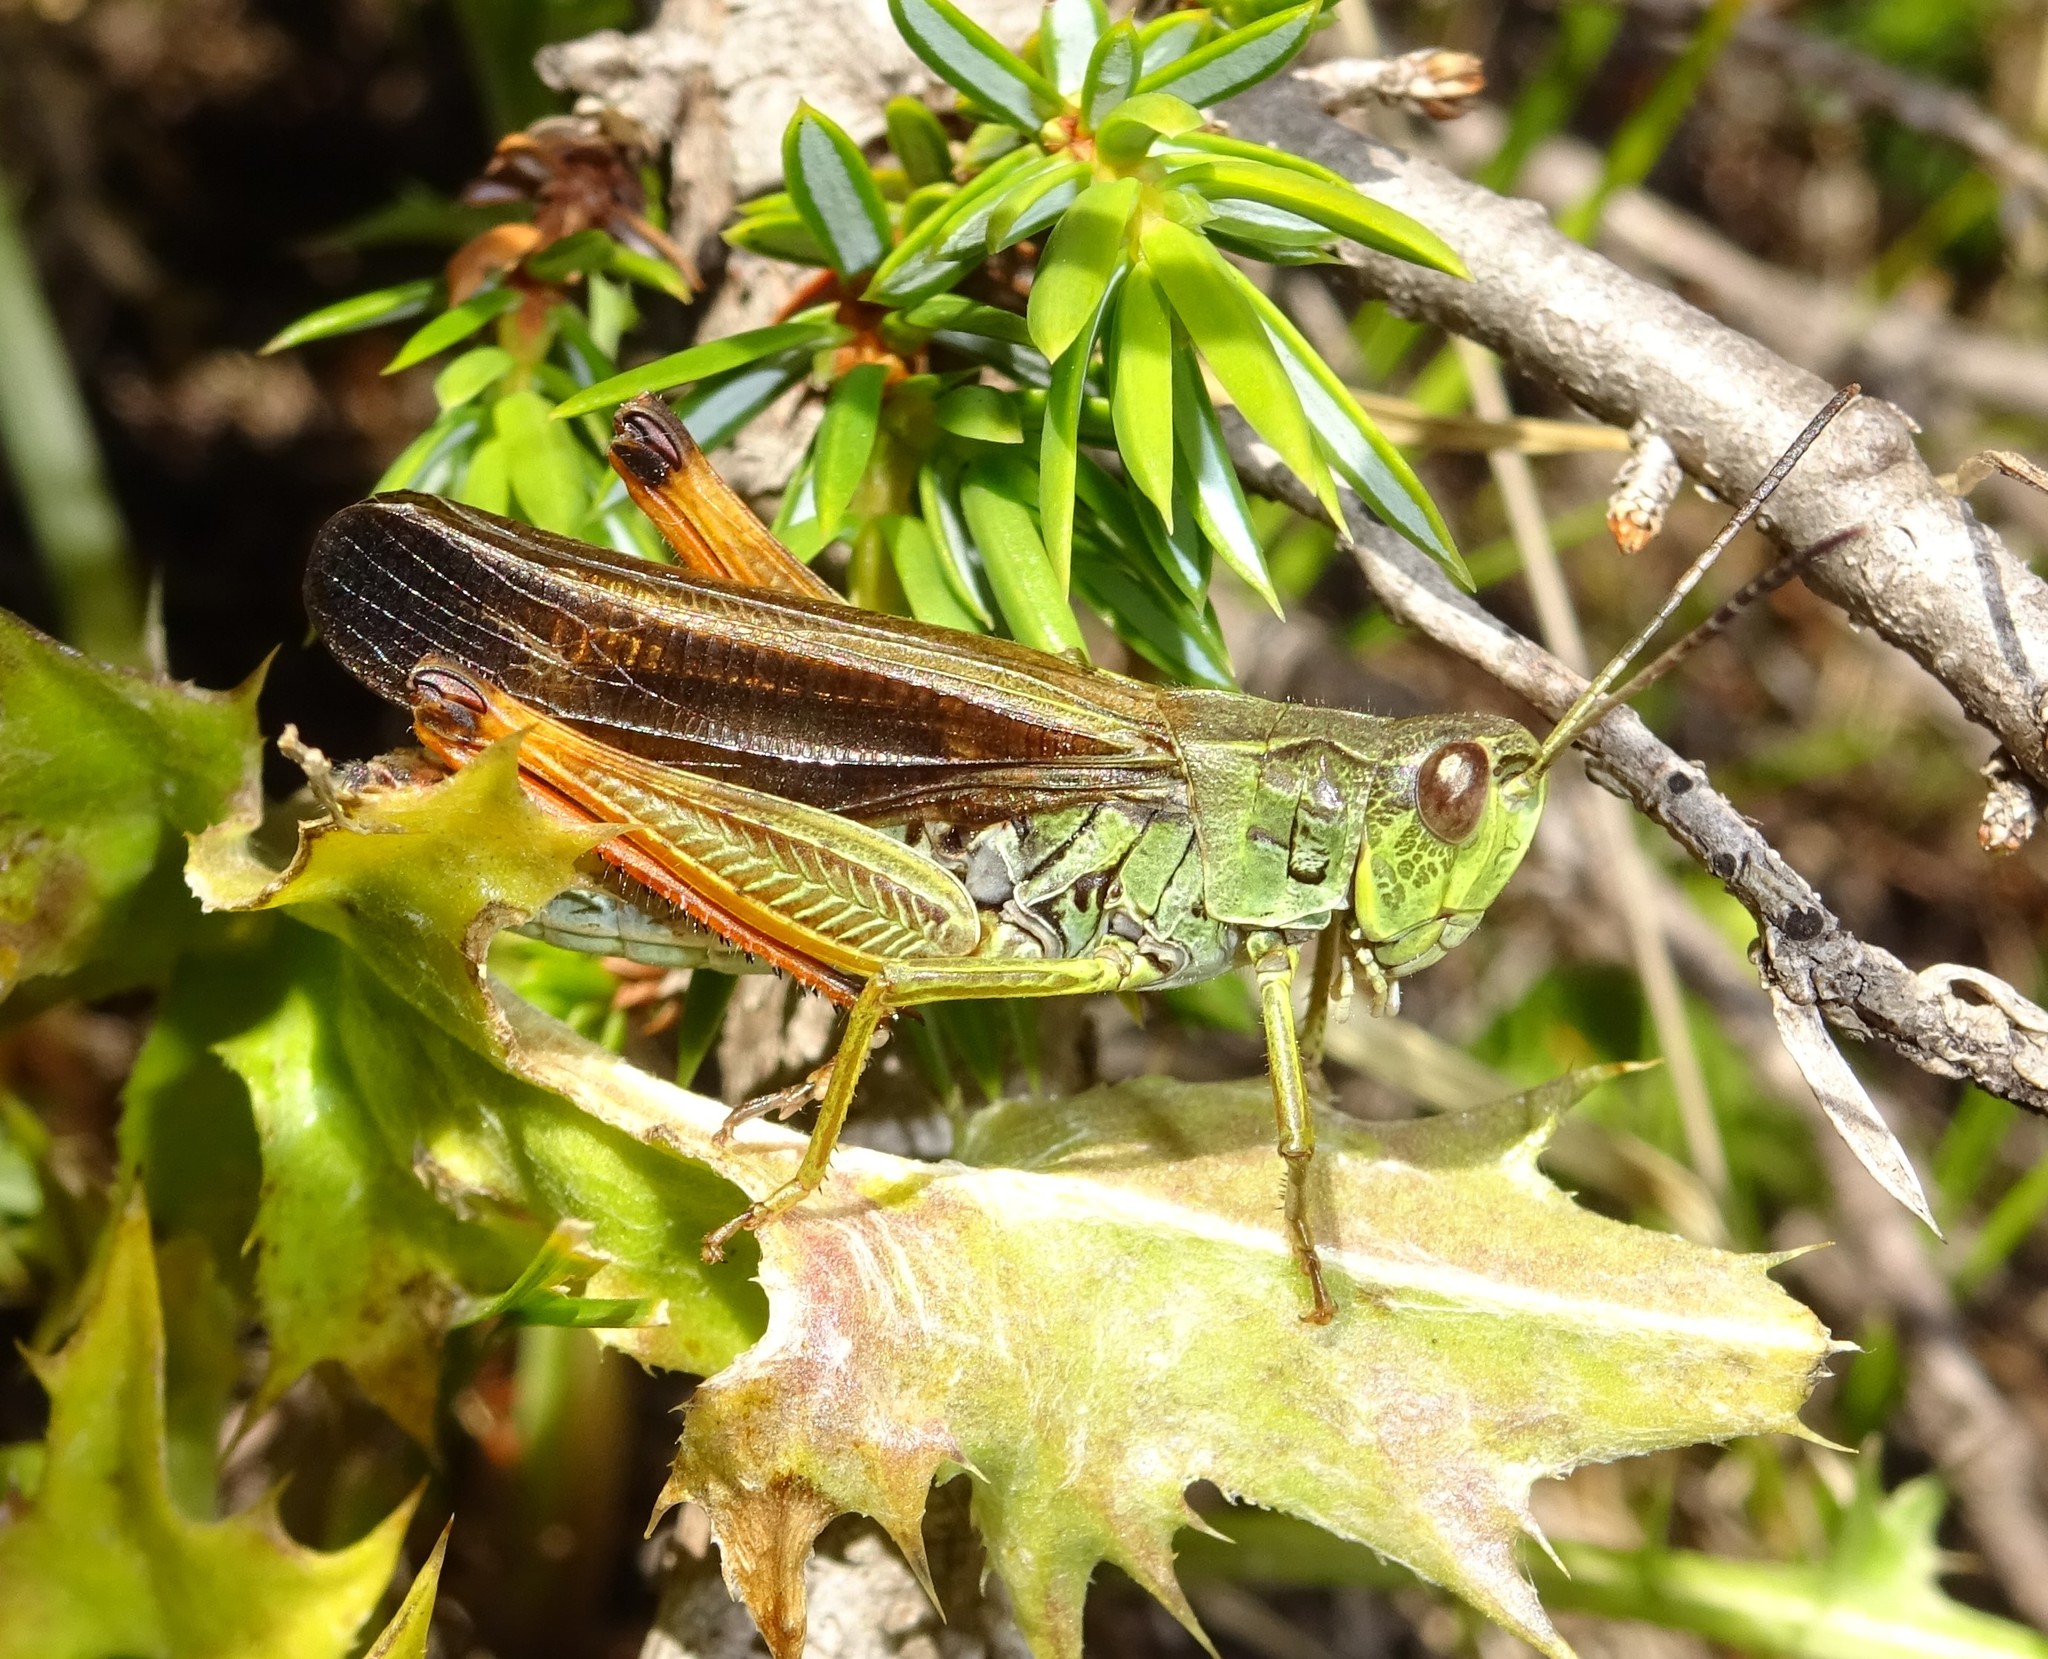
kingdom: Animalia
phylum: Arthropoda
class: Insecta
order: Orthoptera
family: Acrididae
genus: Stauroderus
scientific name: Stauroderus scalaris
